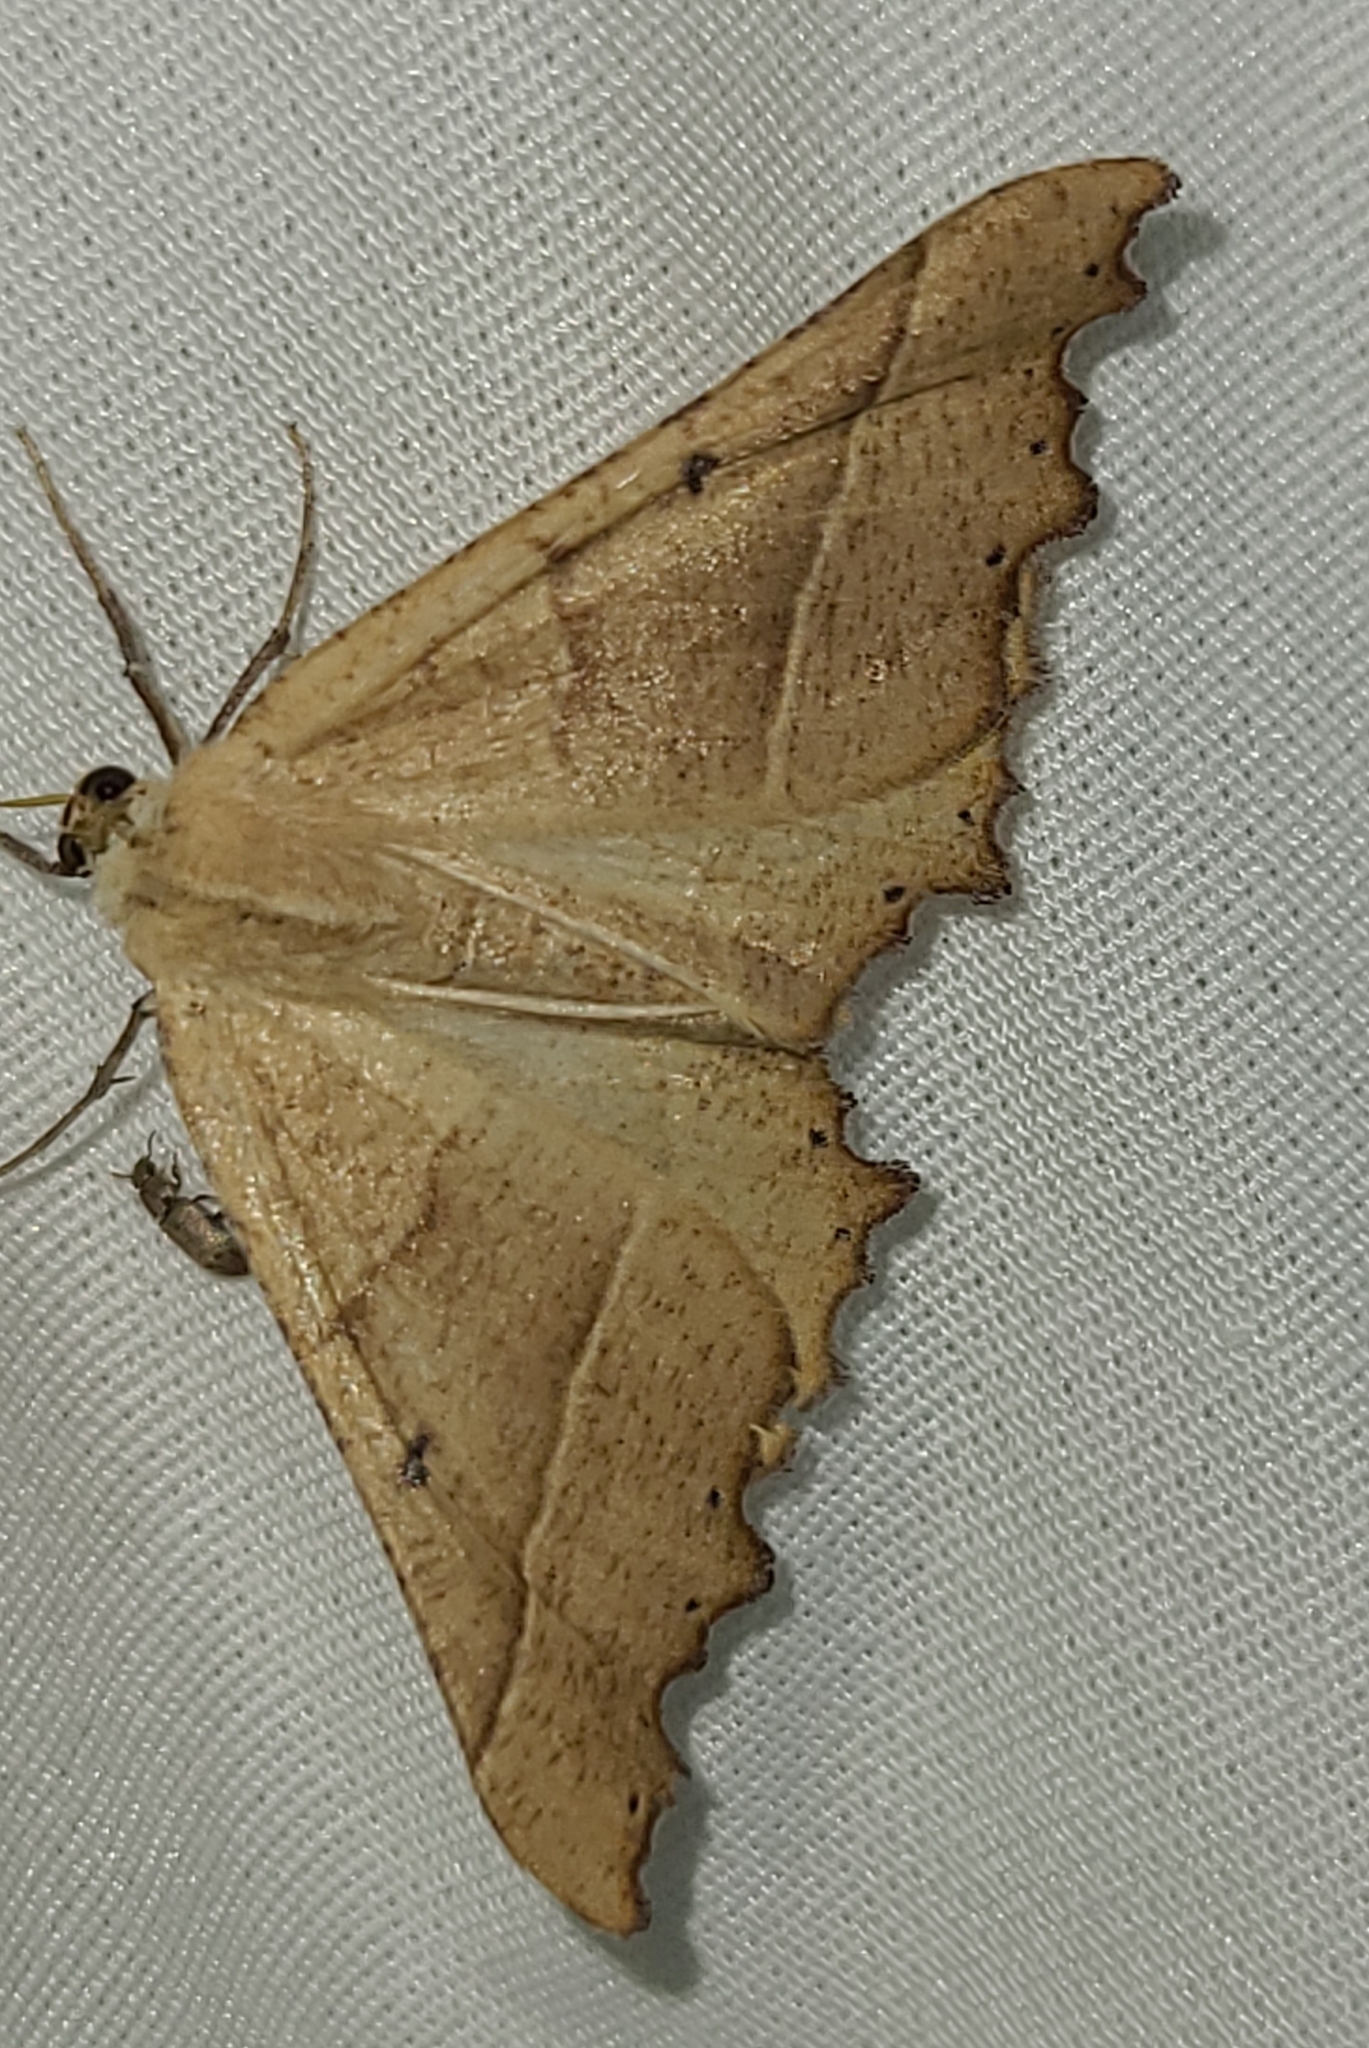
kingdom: Animalia
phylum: Arthropoda
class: Insecta
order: Lepidoptera
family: Geometridae
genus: Pero
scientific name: Pero radiosaria
